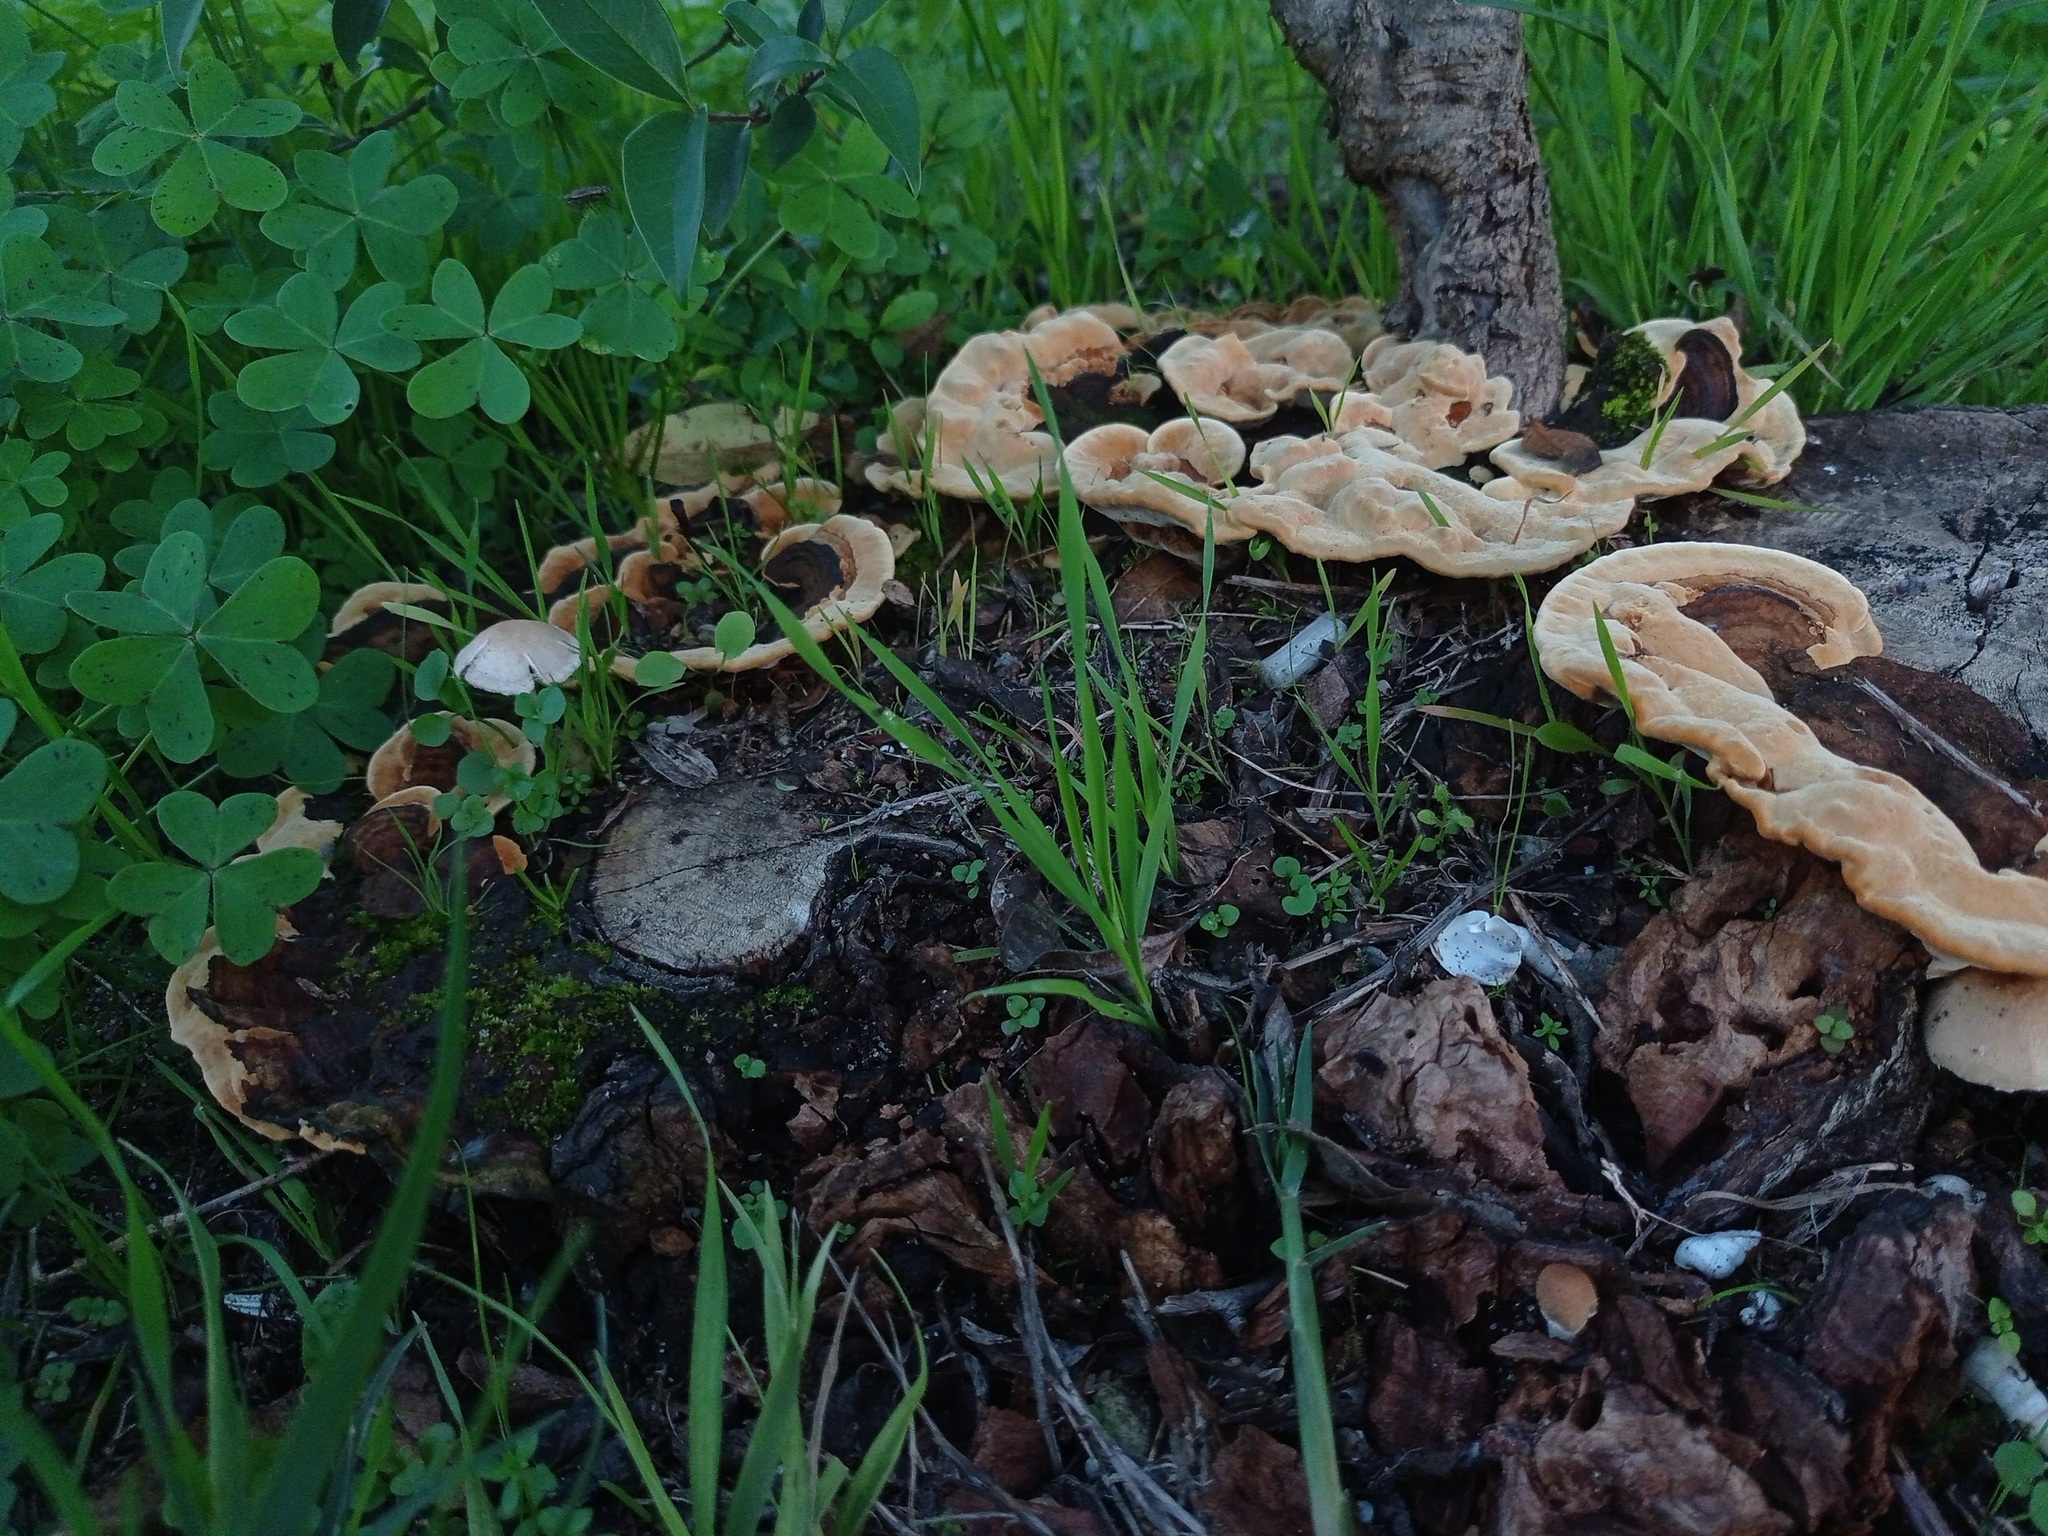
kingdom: Fungi
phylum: Basidiomycota
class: Agaricomycetes
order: Polyporales
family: Laetiporaceae
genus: Phaeolus
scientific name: Phaeolus schweinitzii
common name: Dyer's mazegill
